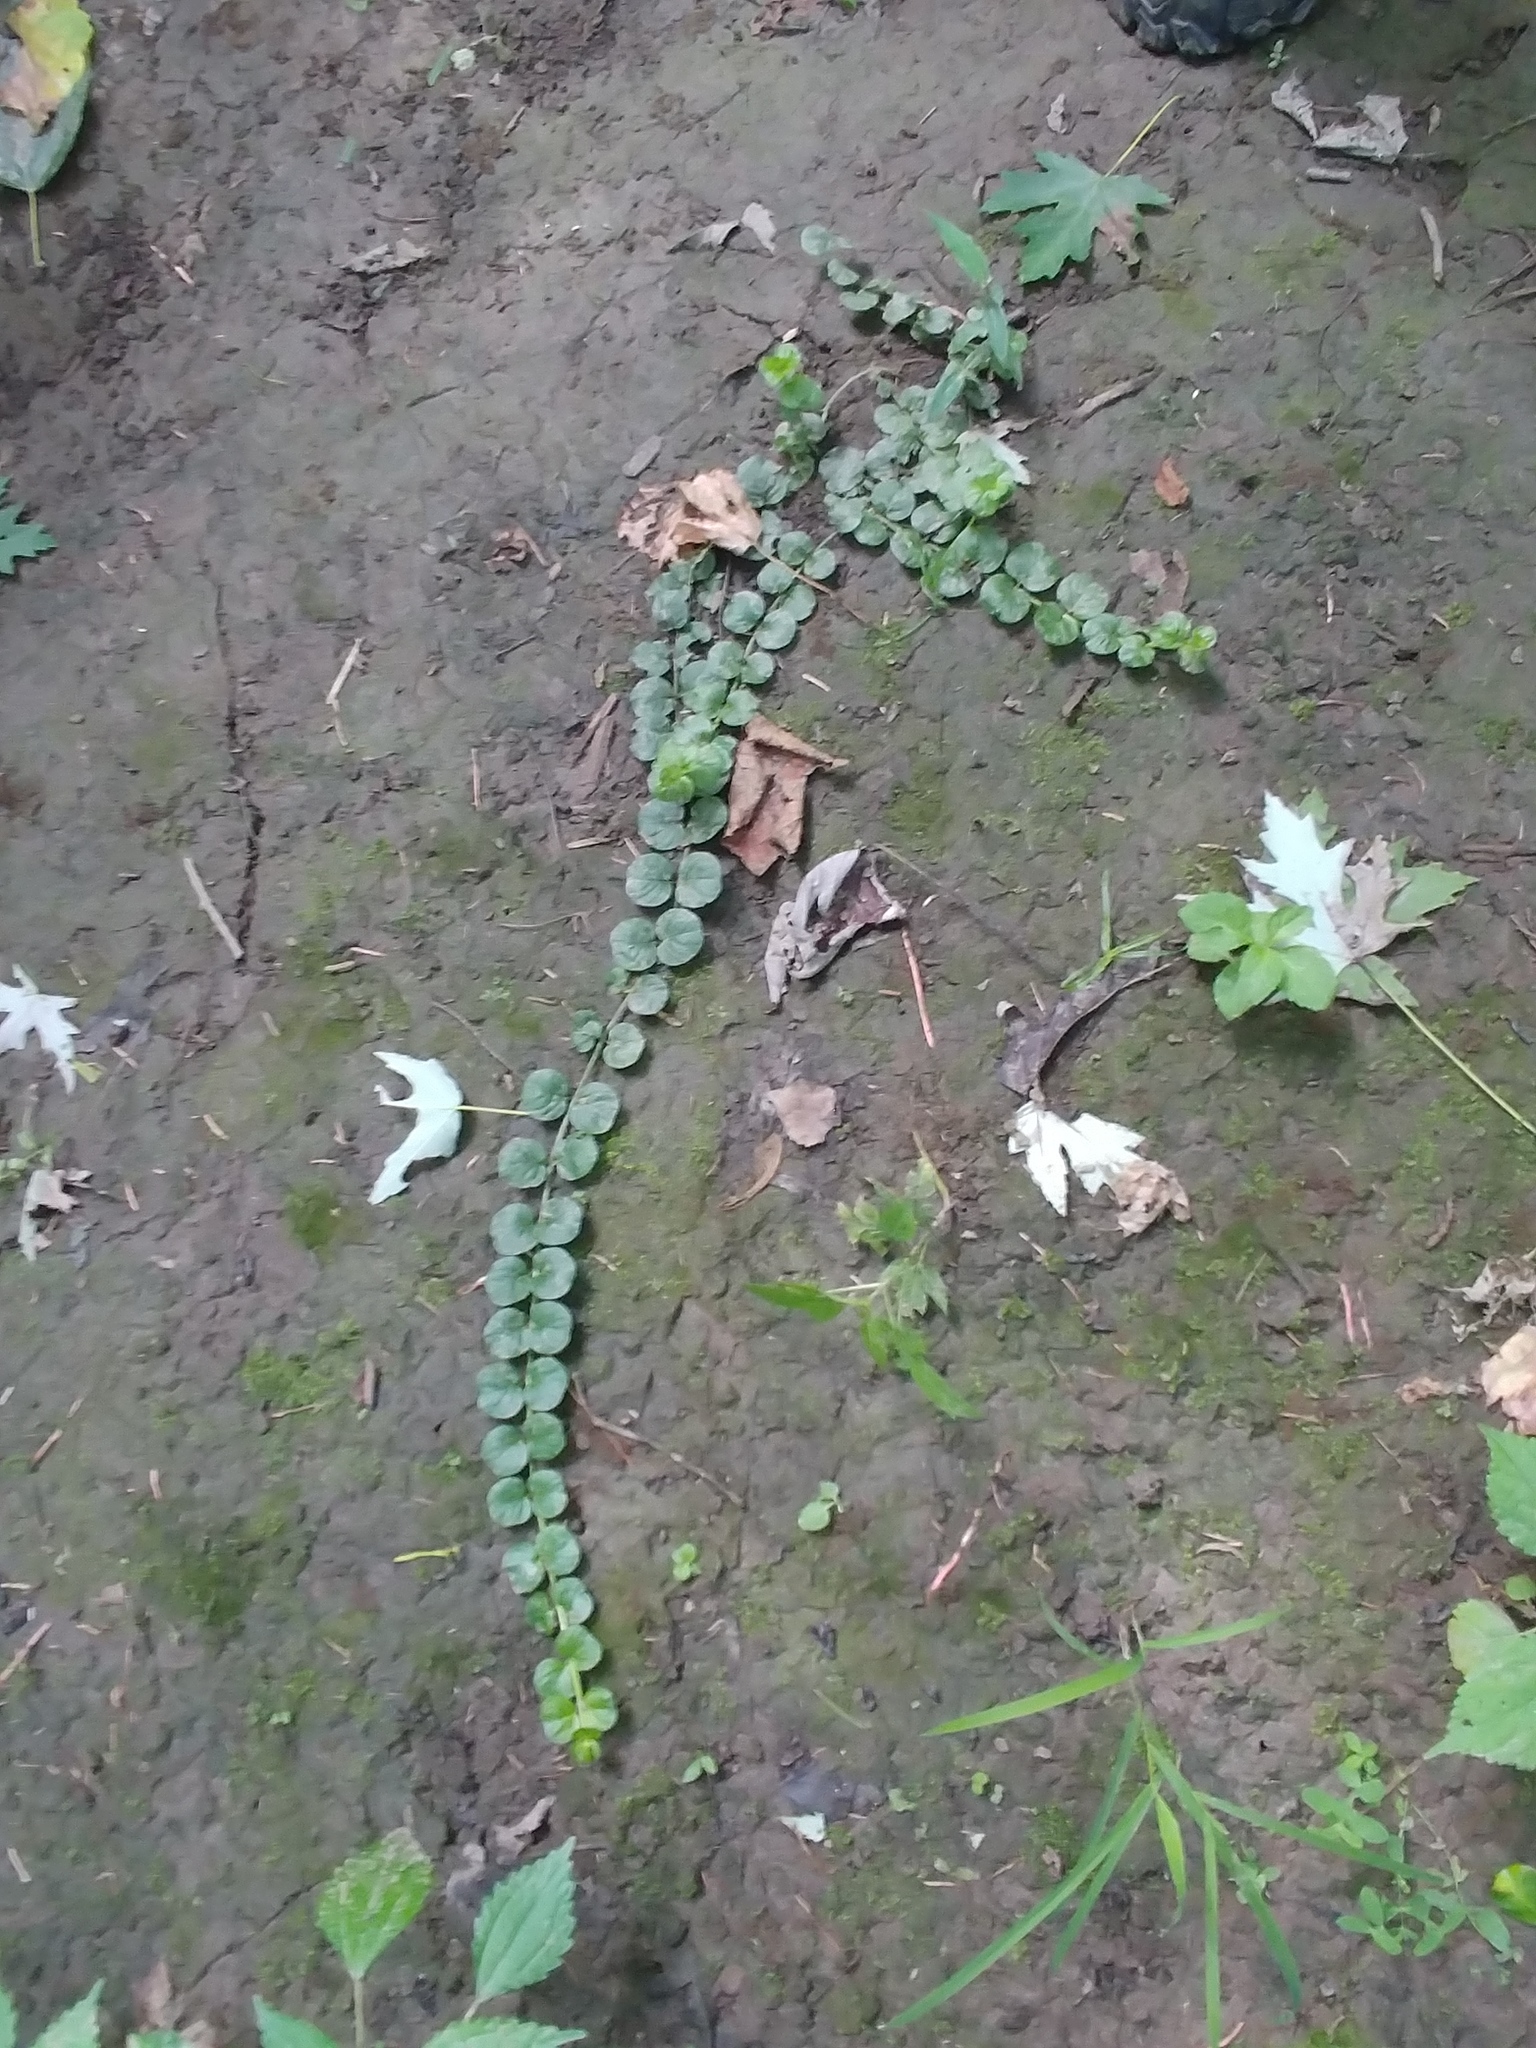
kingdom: Plantae
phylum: Tracheophyta
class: Magnoliopsida
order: Ericales
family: Primulaceae
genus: Lysimachia
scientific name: Lysimachia nummularia
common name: Moneywort
